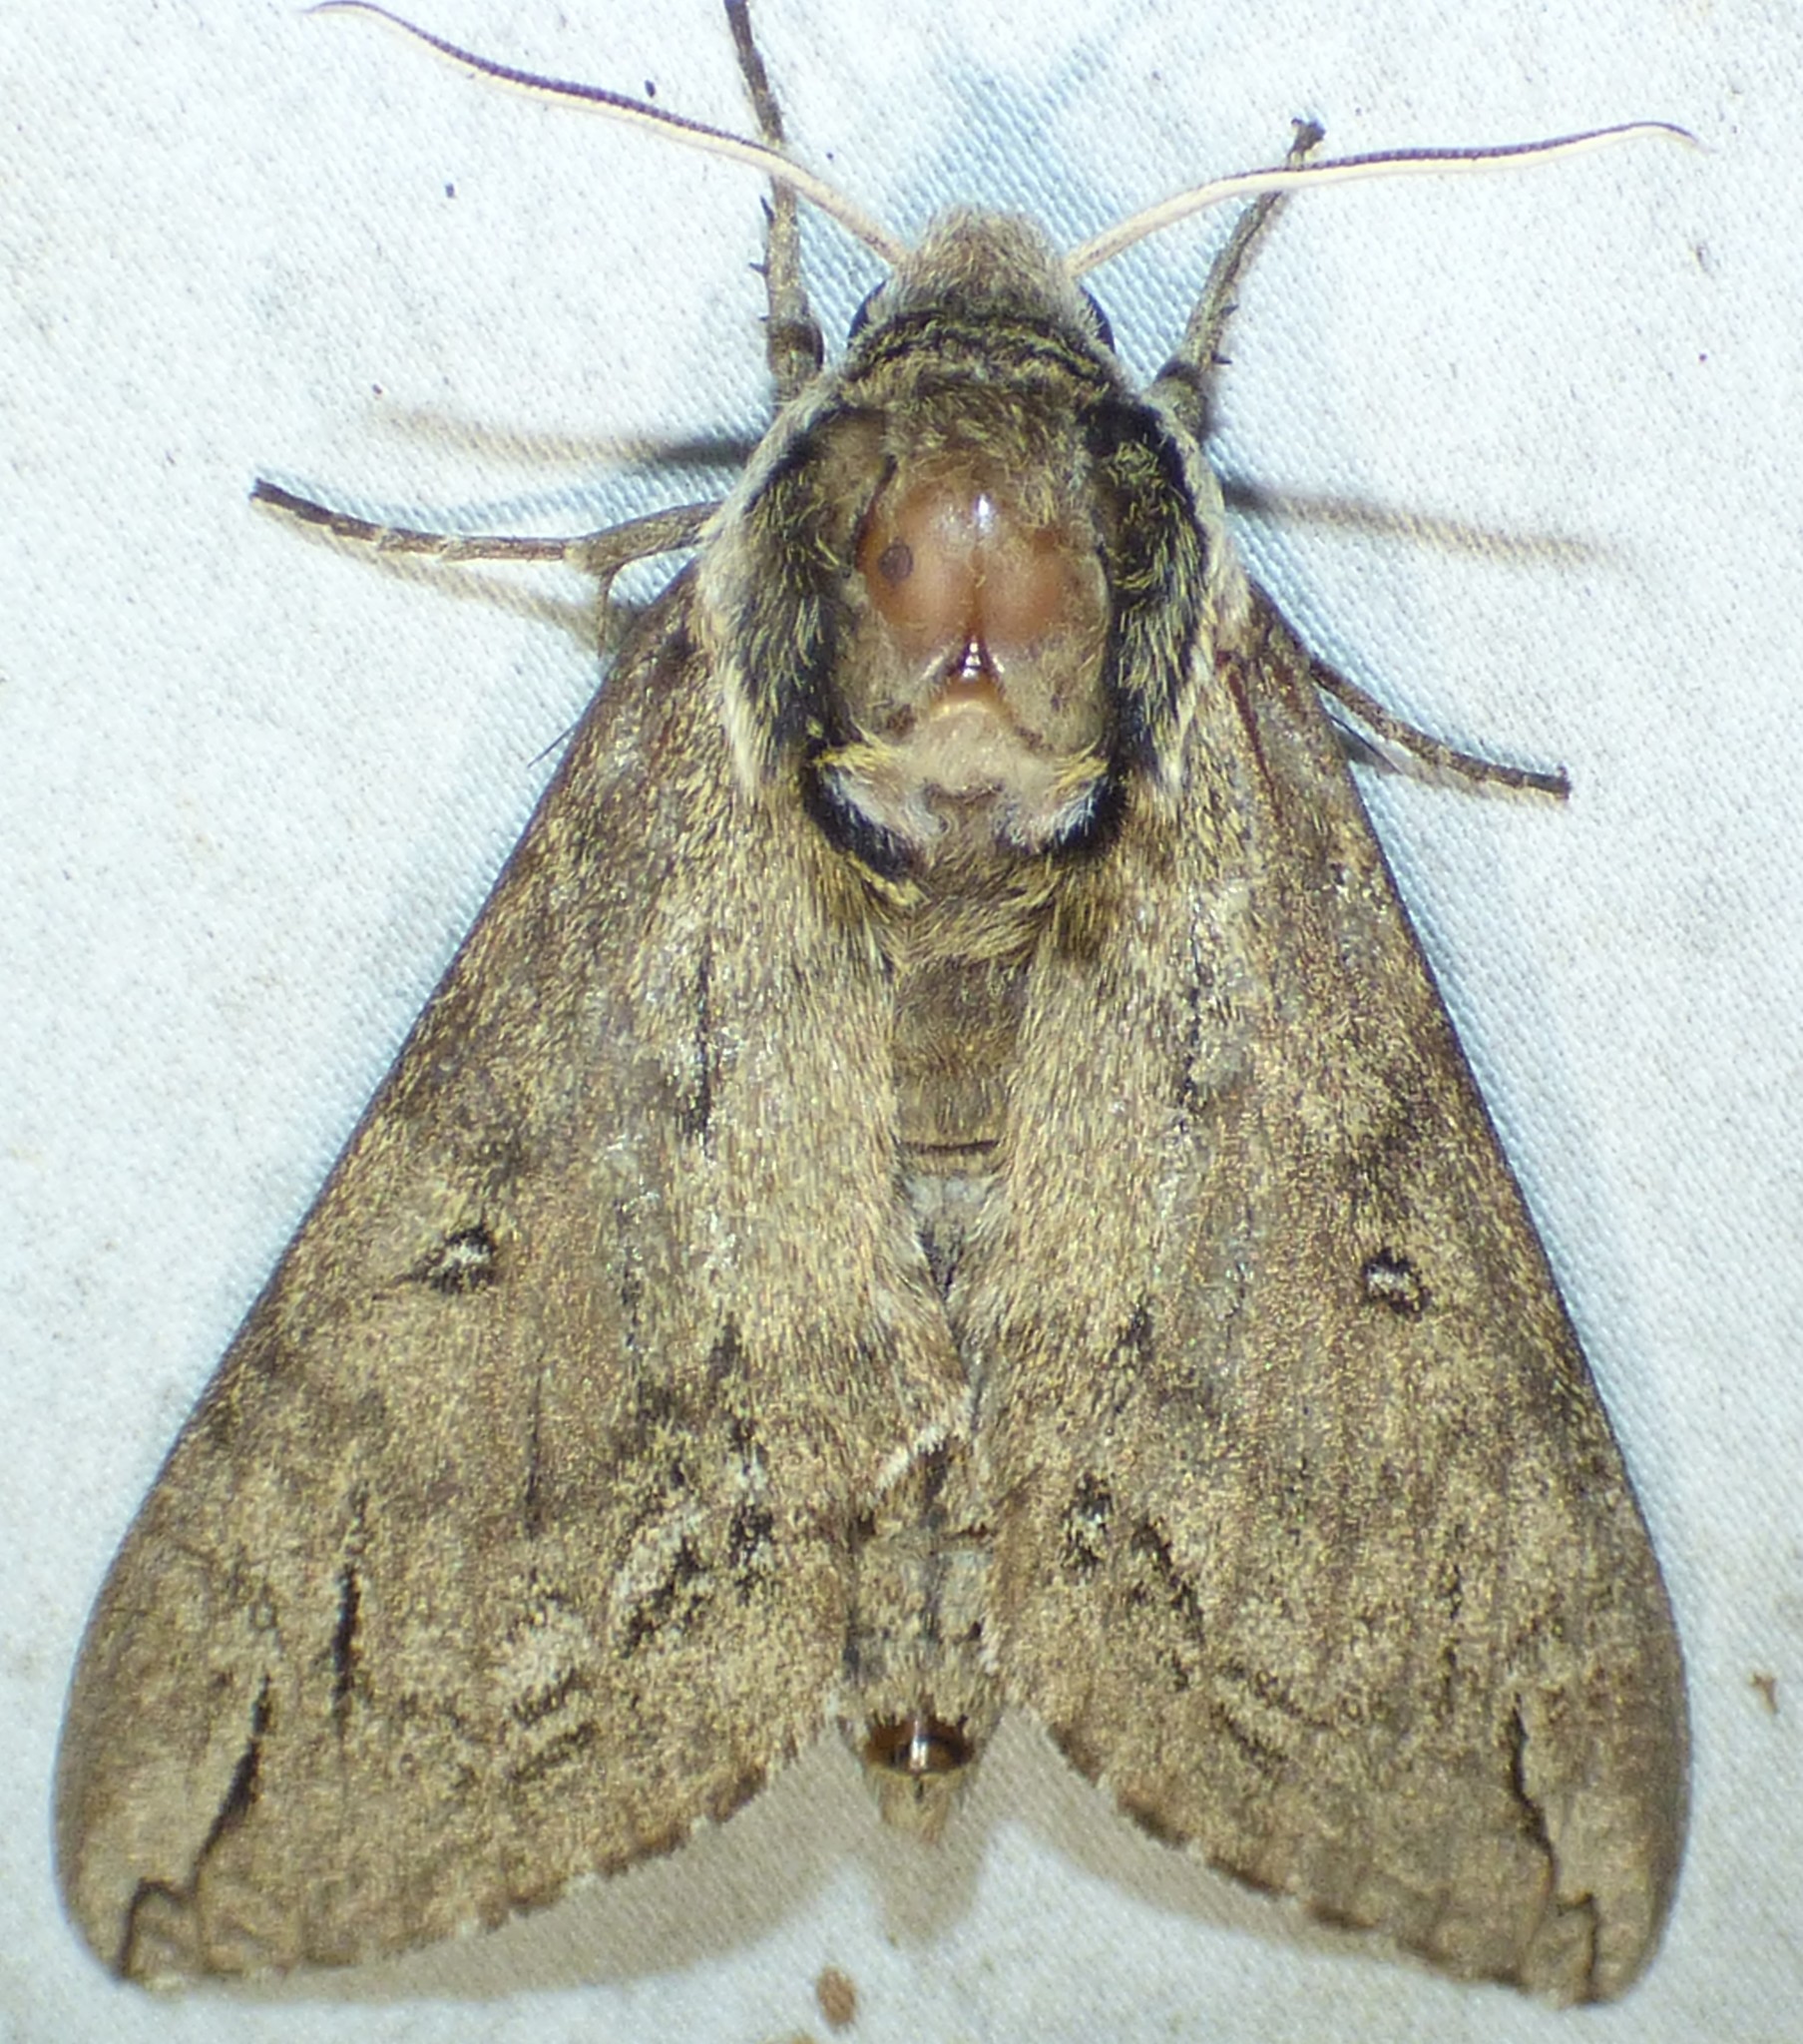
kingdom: Animalia
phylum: Arthropoda
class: Insecta
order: Lepidoptera
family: Sphingidae
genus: Ceratomia
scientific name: Ceratomia catalpae
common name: Catalpa hornworm
